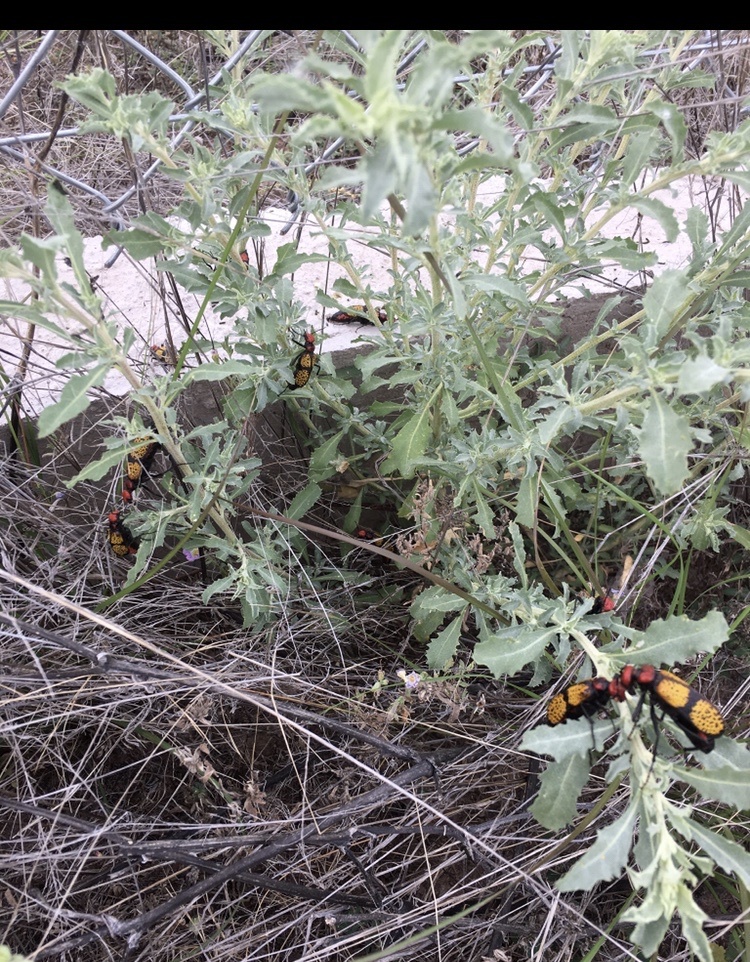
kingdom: Animalia
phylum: Arthropoda
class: Insecta
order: Coleoptera
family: Meloidae
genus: Tegrodera
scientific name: Tegrodera aloga
